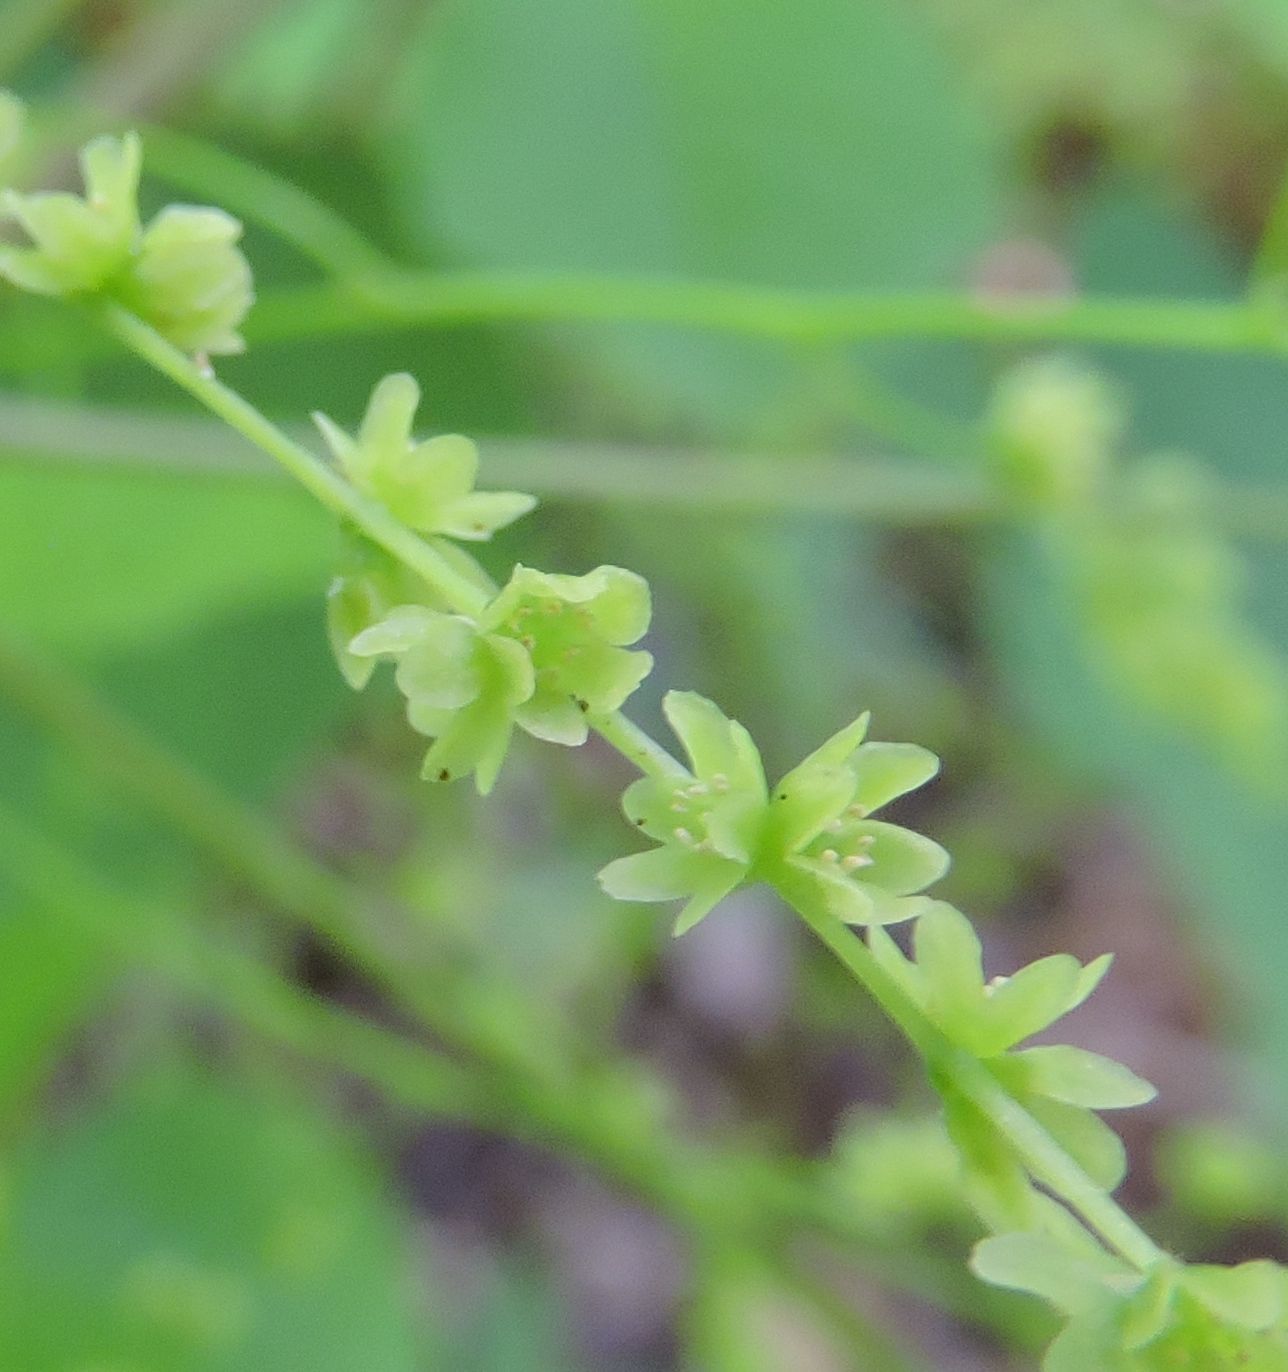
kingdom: Plantae
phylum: Tracheophyta
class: Liliopsida
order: Dioscoreales
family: Dioscoreaceae
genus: Dioscorea
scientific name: Dioscorea villosa
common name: Wild yam
